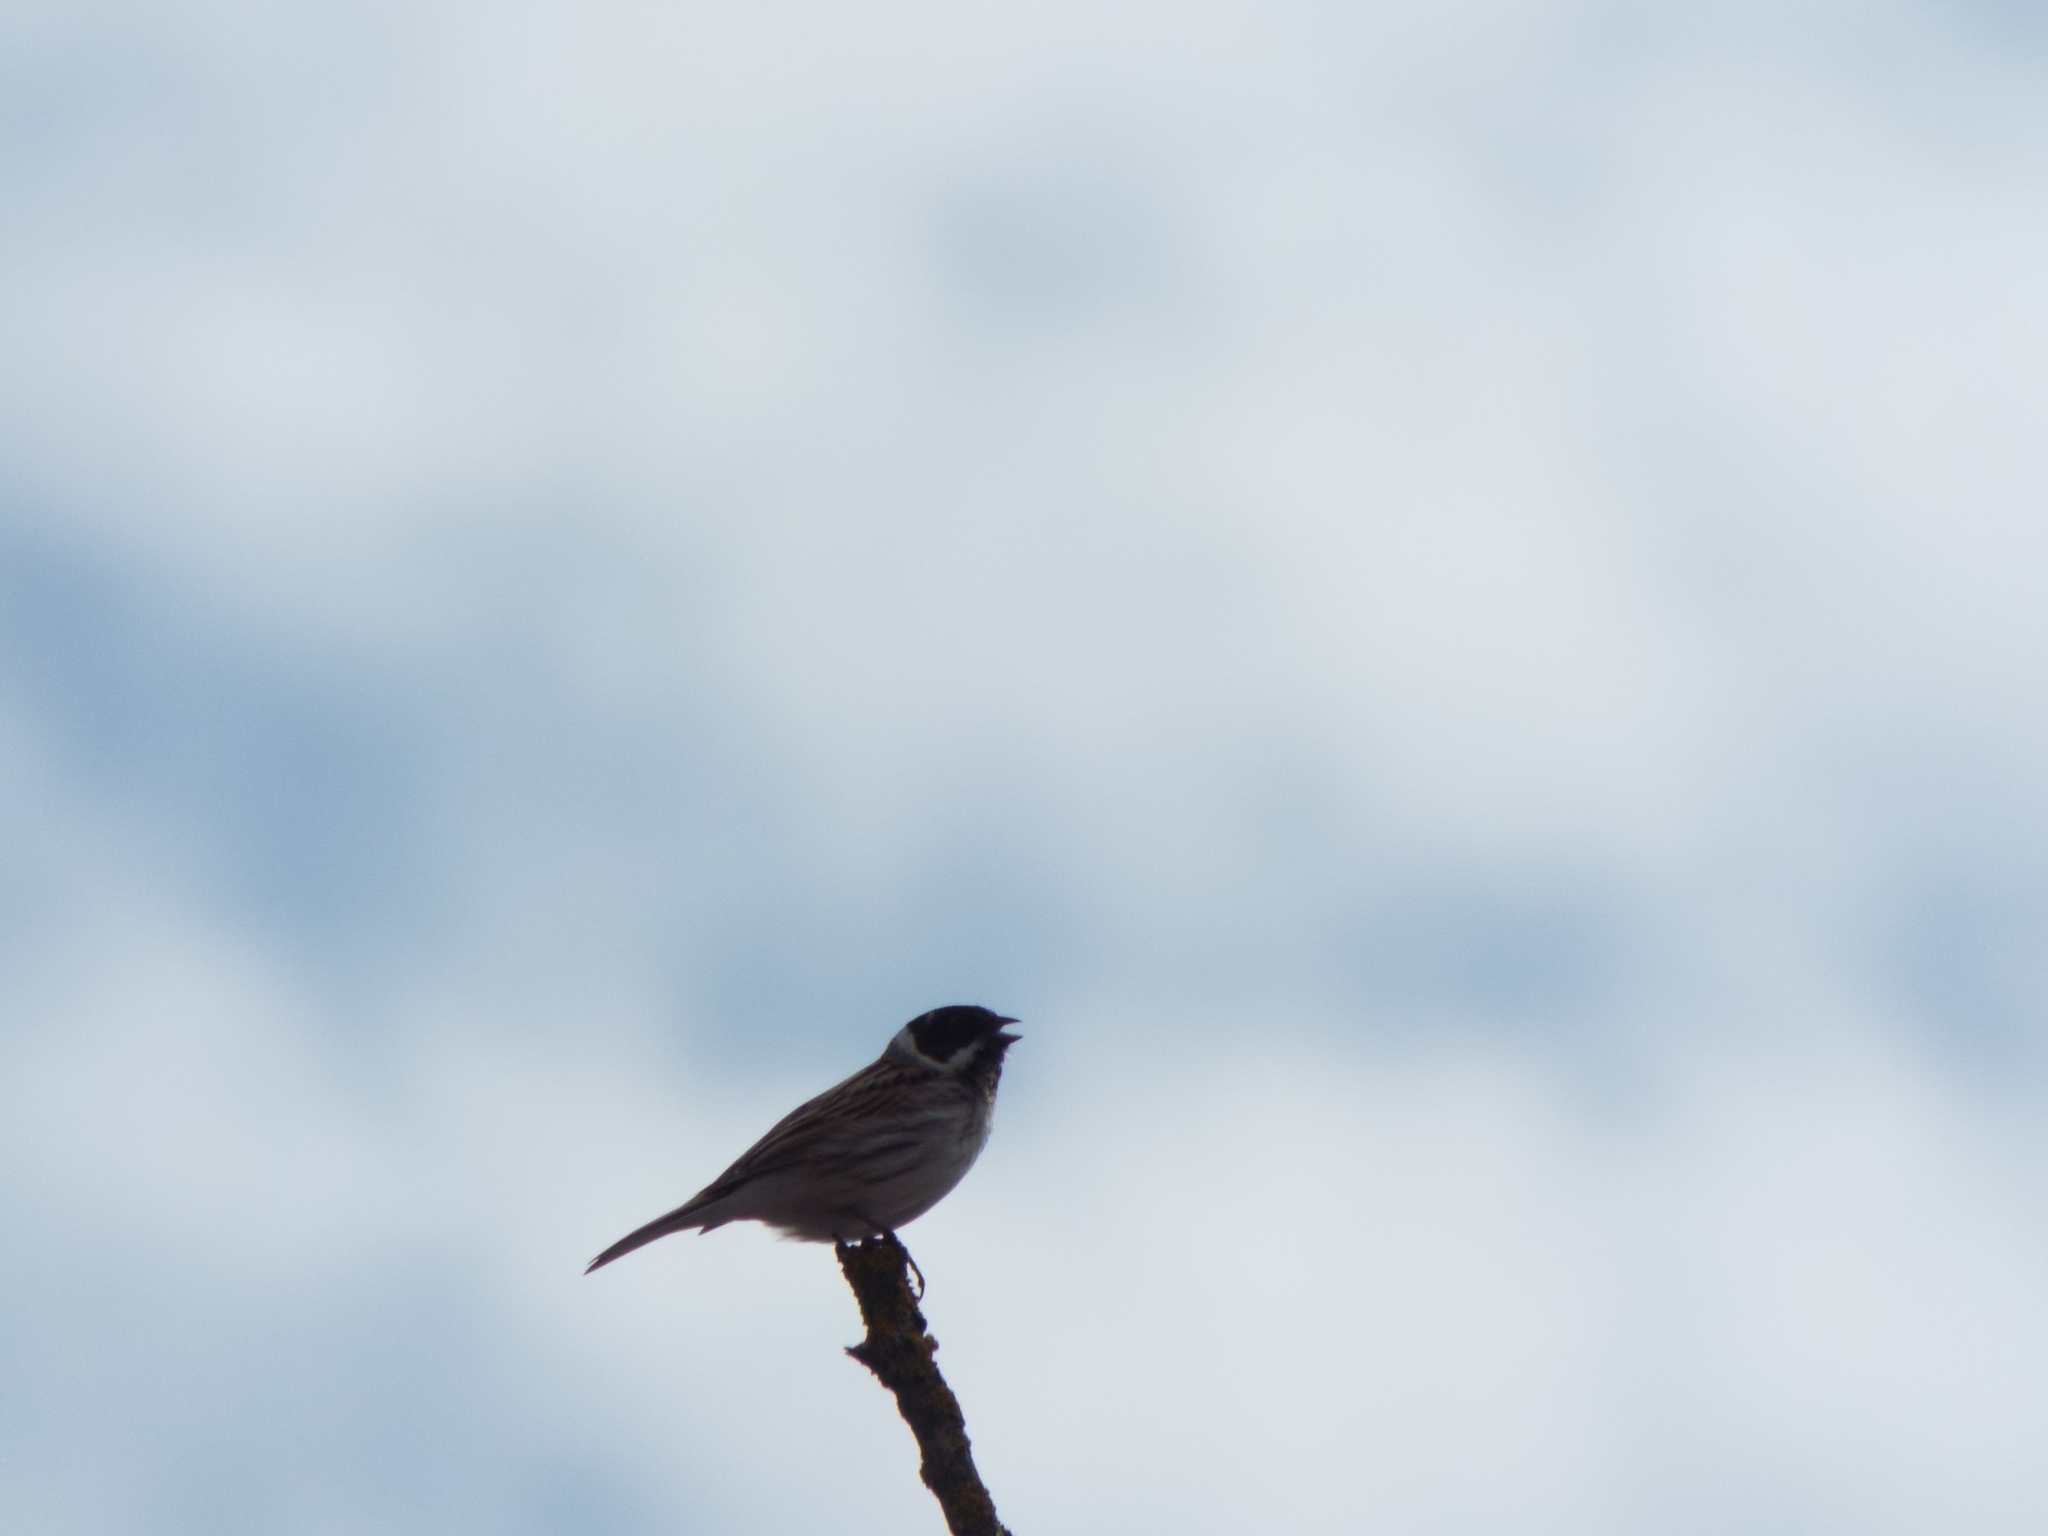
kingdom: Animalia
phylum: Chordata
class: Aves
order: Passeriformes
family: Emberizidae
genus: Emberiza
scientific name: Emberiza schoeniclus
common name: Reed bunting
